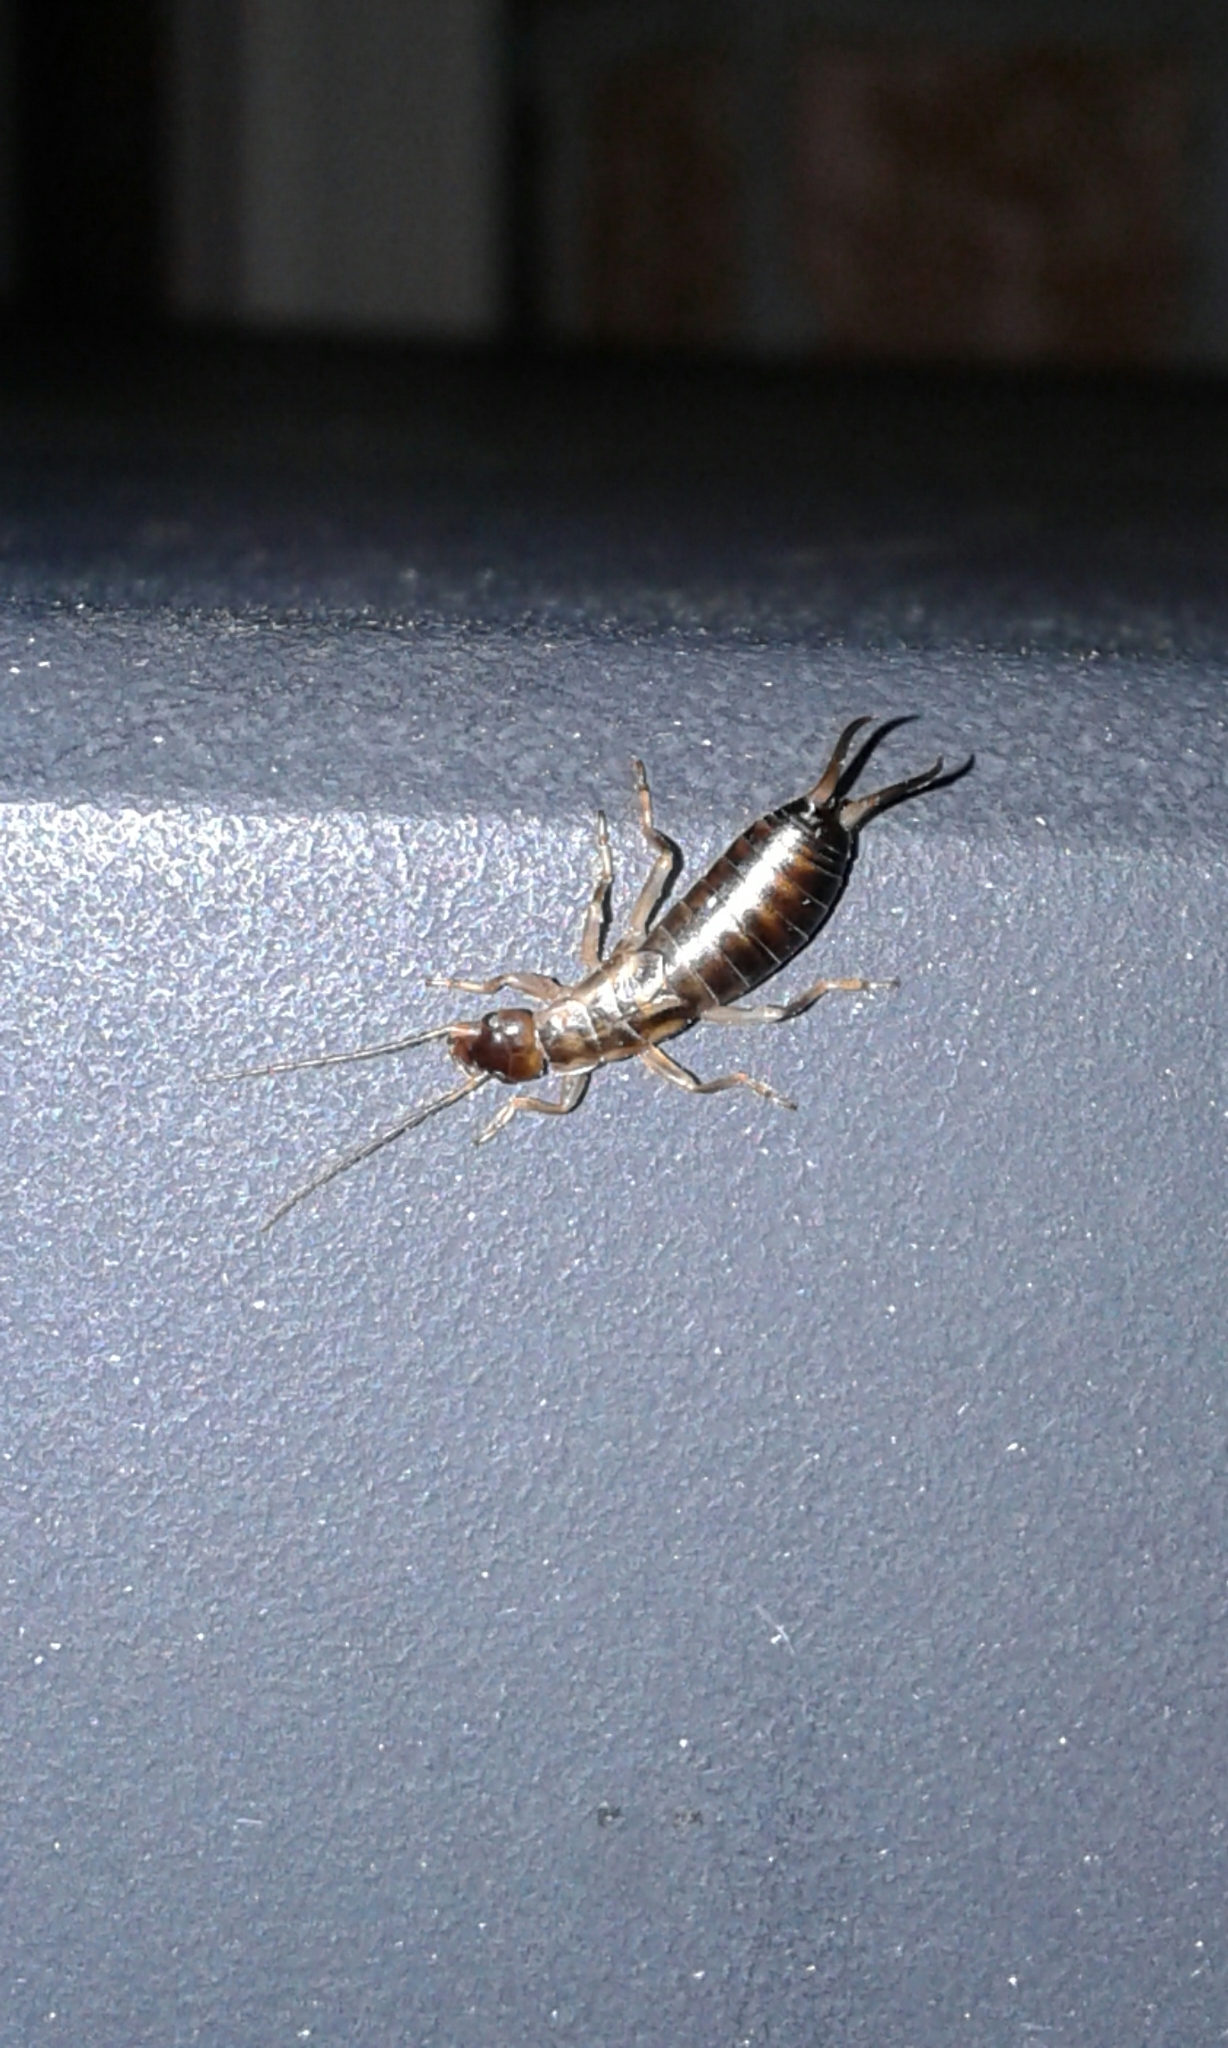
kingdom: Animalia
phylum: Arthropoda
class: Insecta
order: Dermaptera
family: Forficulidae
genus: Forficula
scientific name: Forficula
